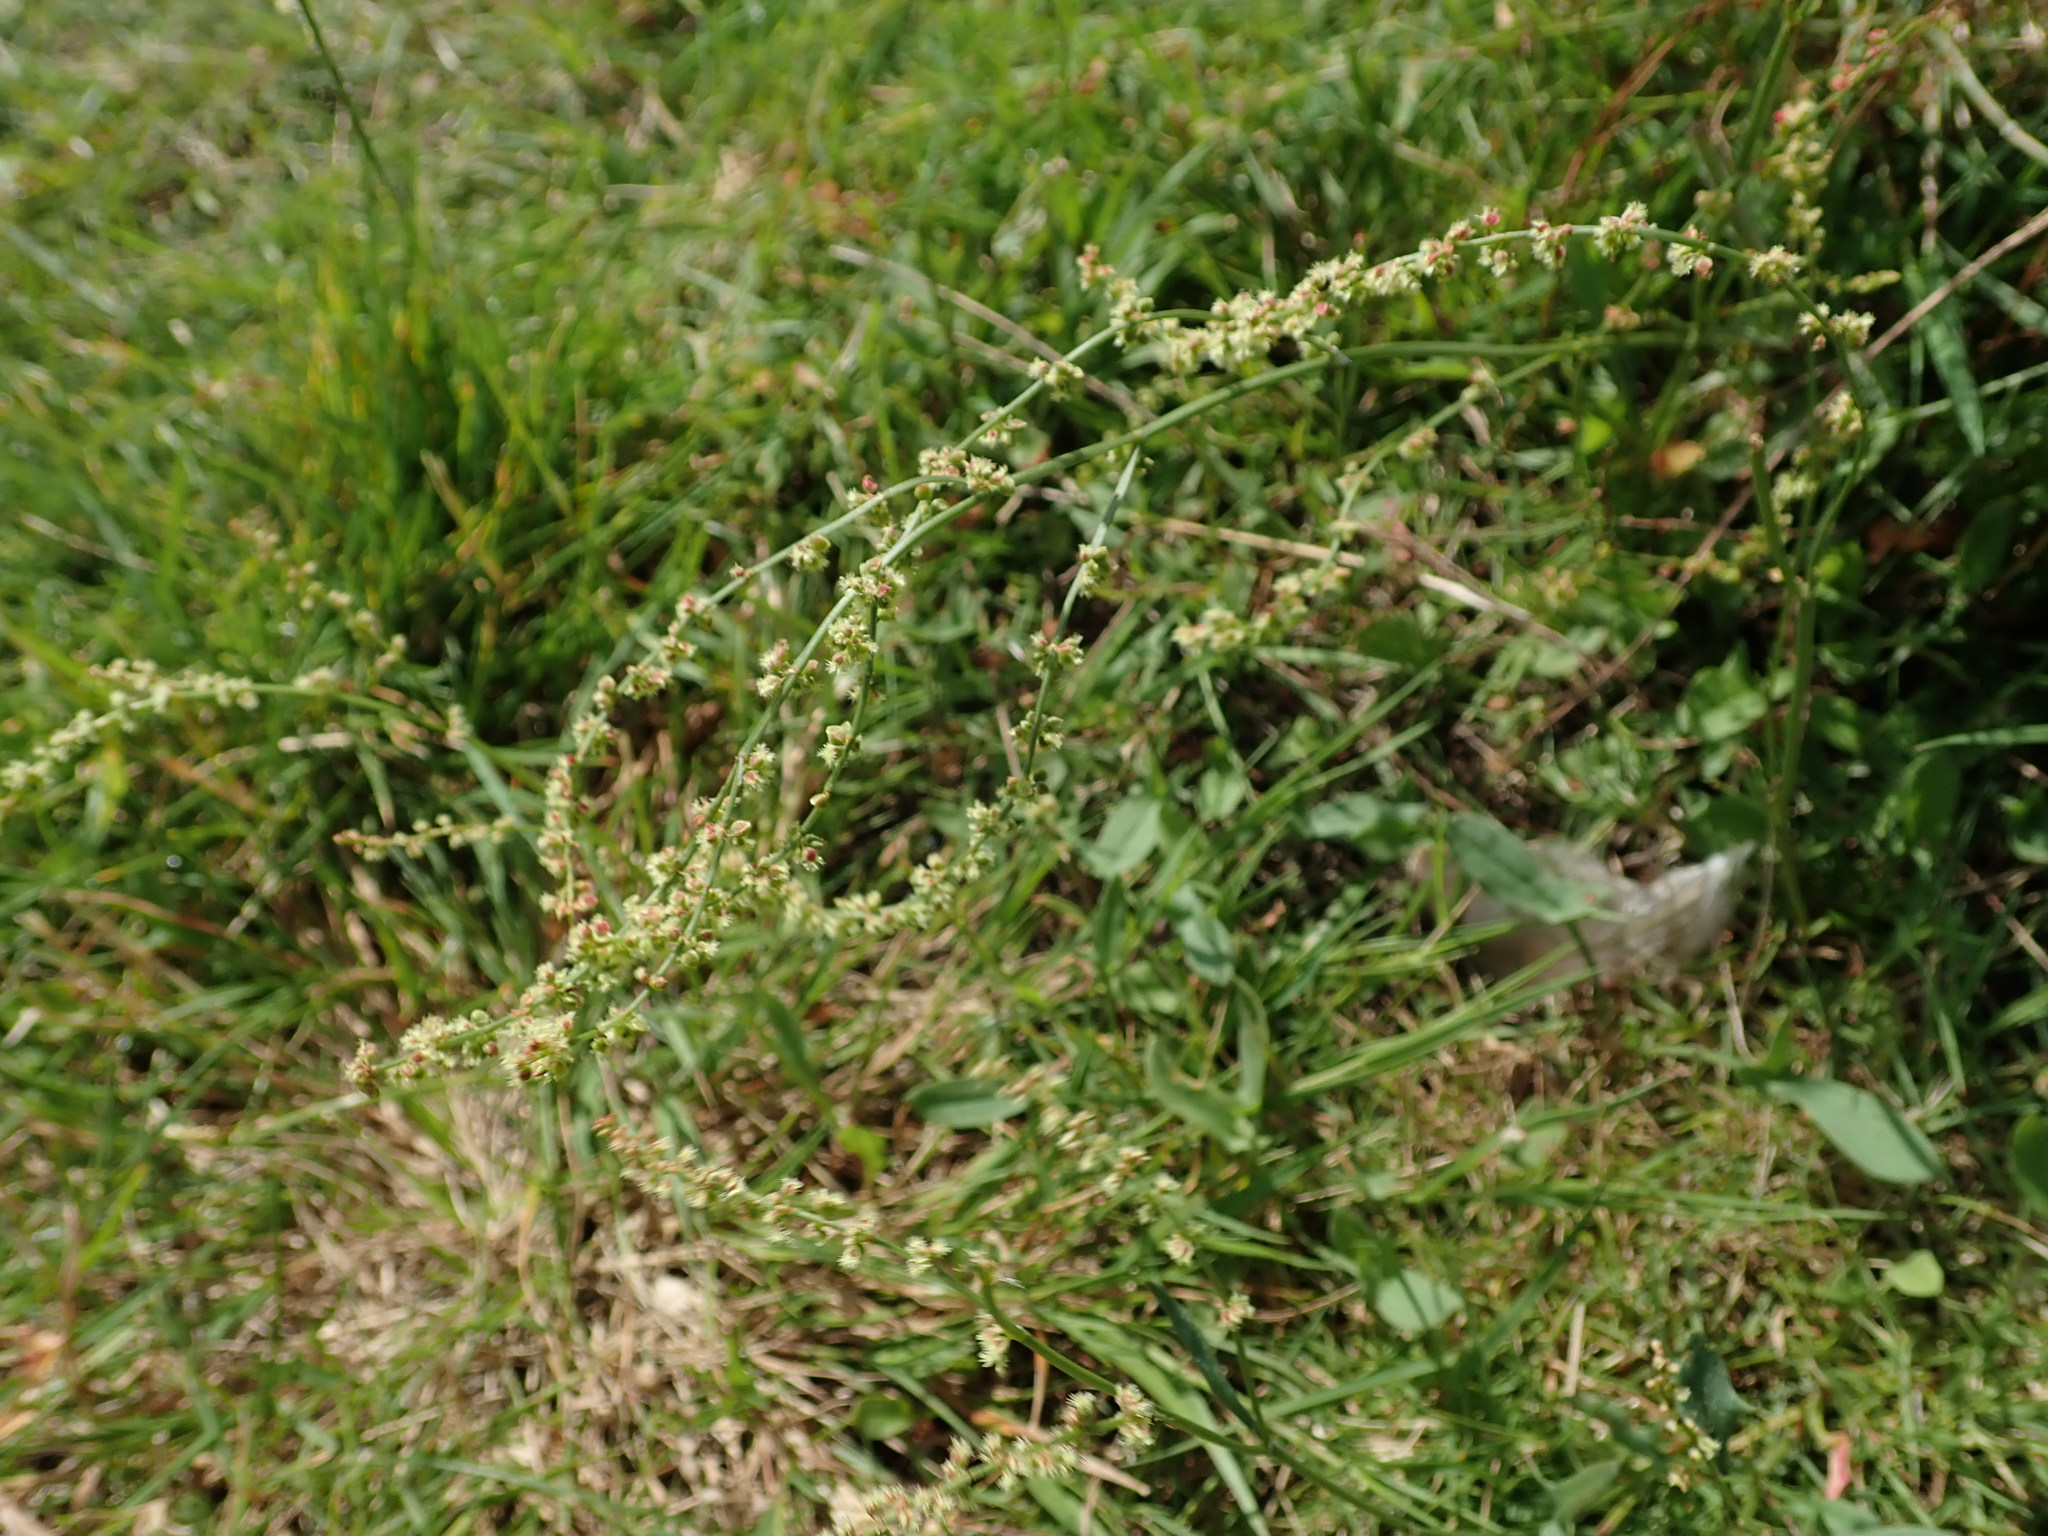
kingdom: Plantae
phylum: Tracheophyta
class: Magnoliopsida
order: Caryophyllales
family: Polygonaceae
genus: Rumex
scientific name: Rumex acetosella
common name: Common sheep sorrel
